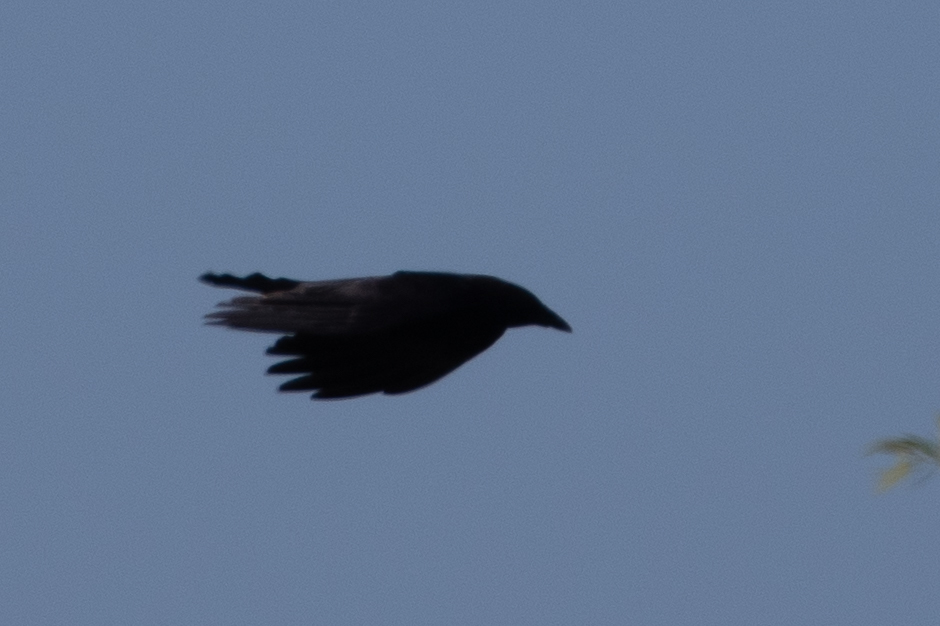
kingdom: Animalia
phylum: Chordata
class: Aves
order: Passeriformes
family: Corvidae
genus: Corvus
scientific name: Corvus brachyrhynchos
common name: American crow
